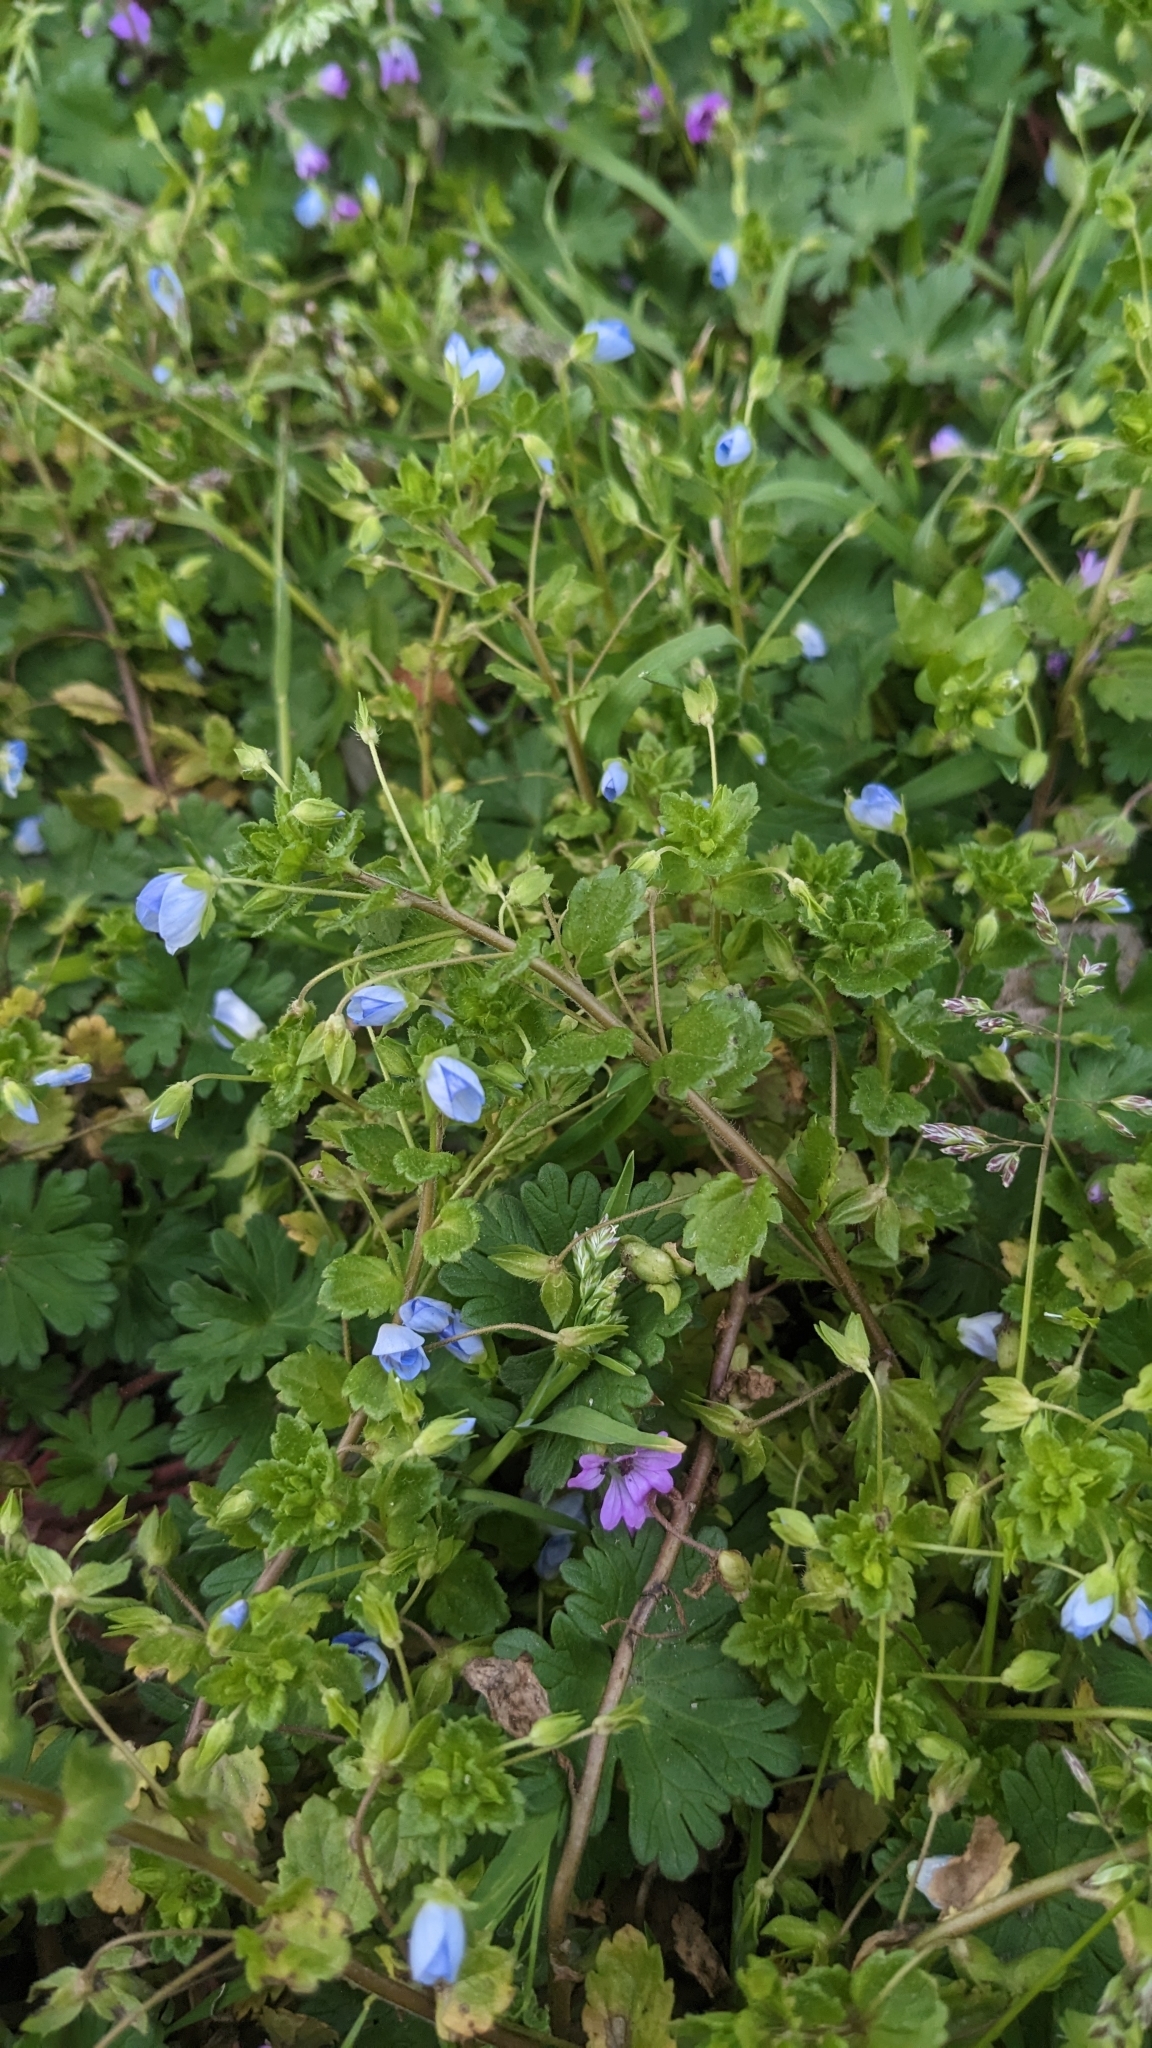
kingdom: Plantae
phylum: Tracheophyta
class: Magnoliopsida
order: Lamiales
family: Plantaginaceae
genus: Veronica
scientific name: Veronica persica
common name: Common field-speedwell
